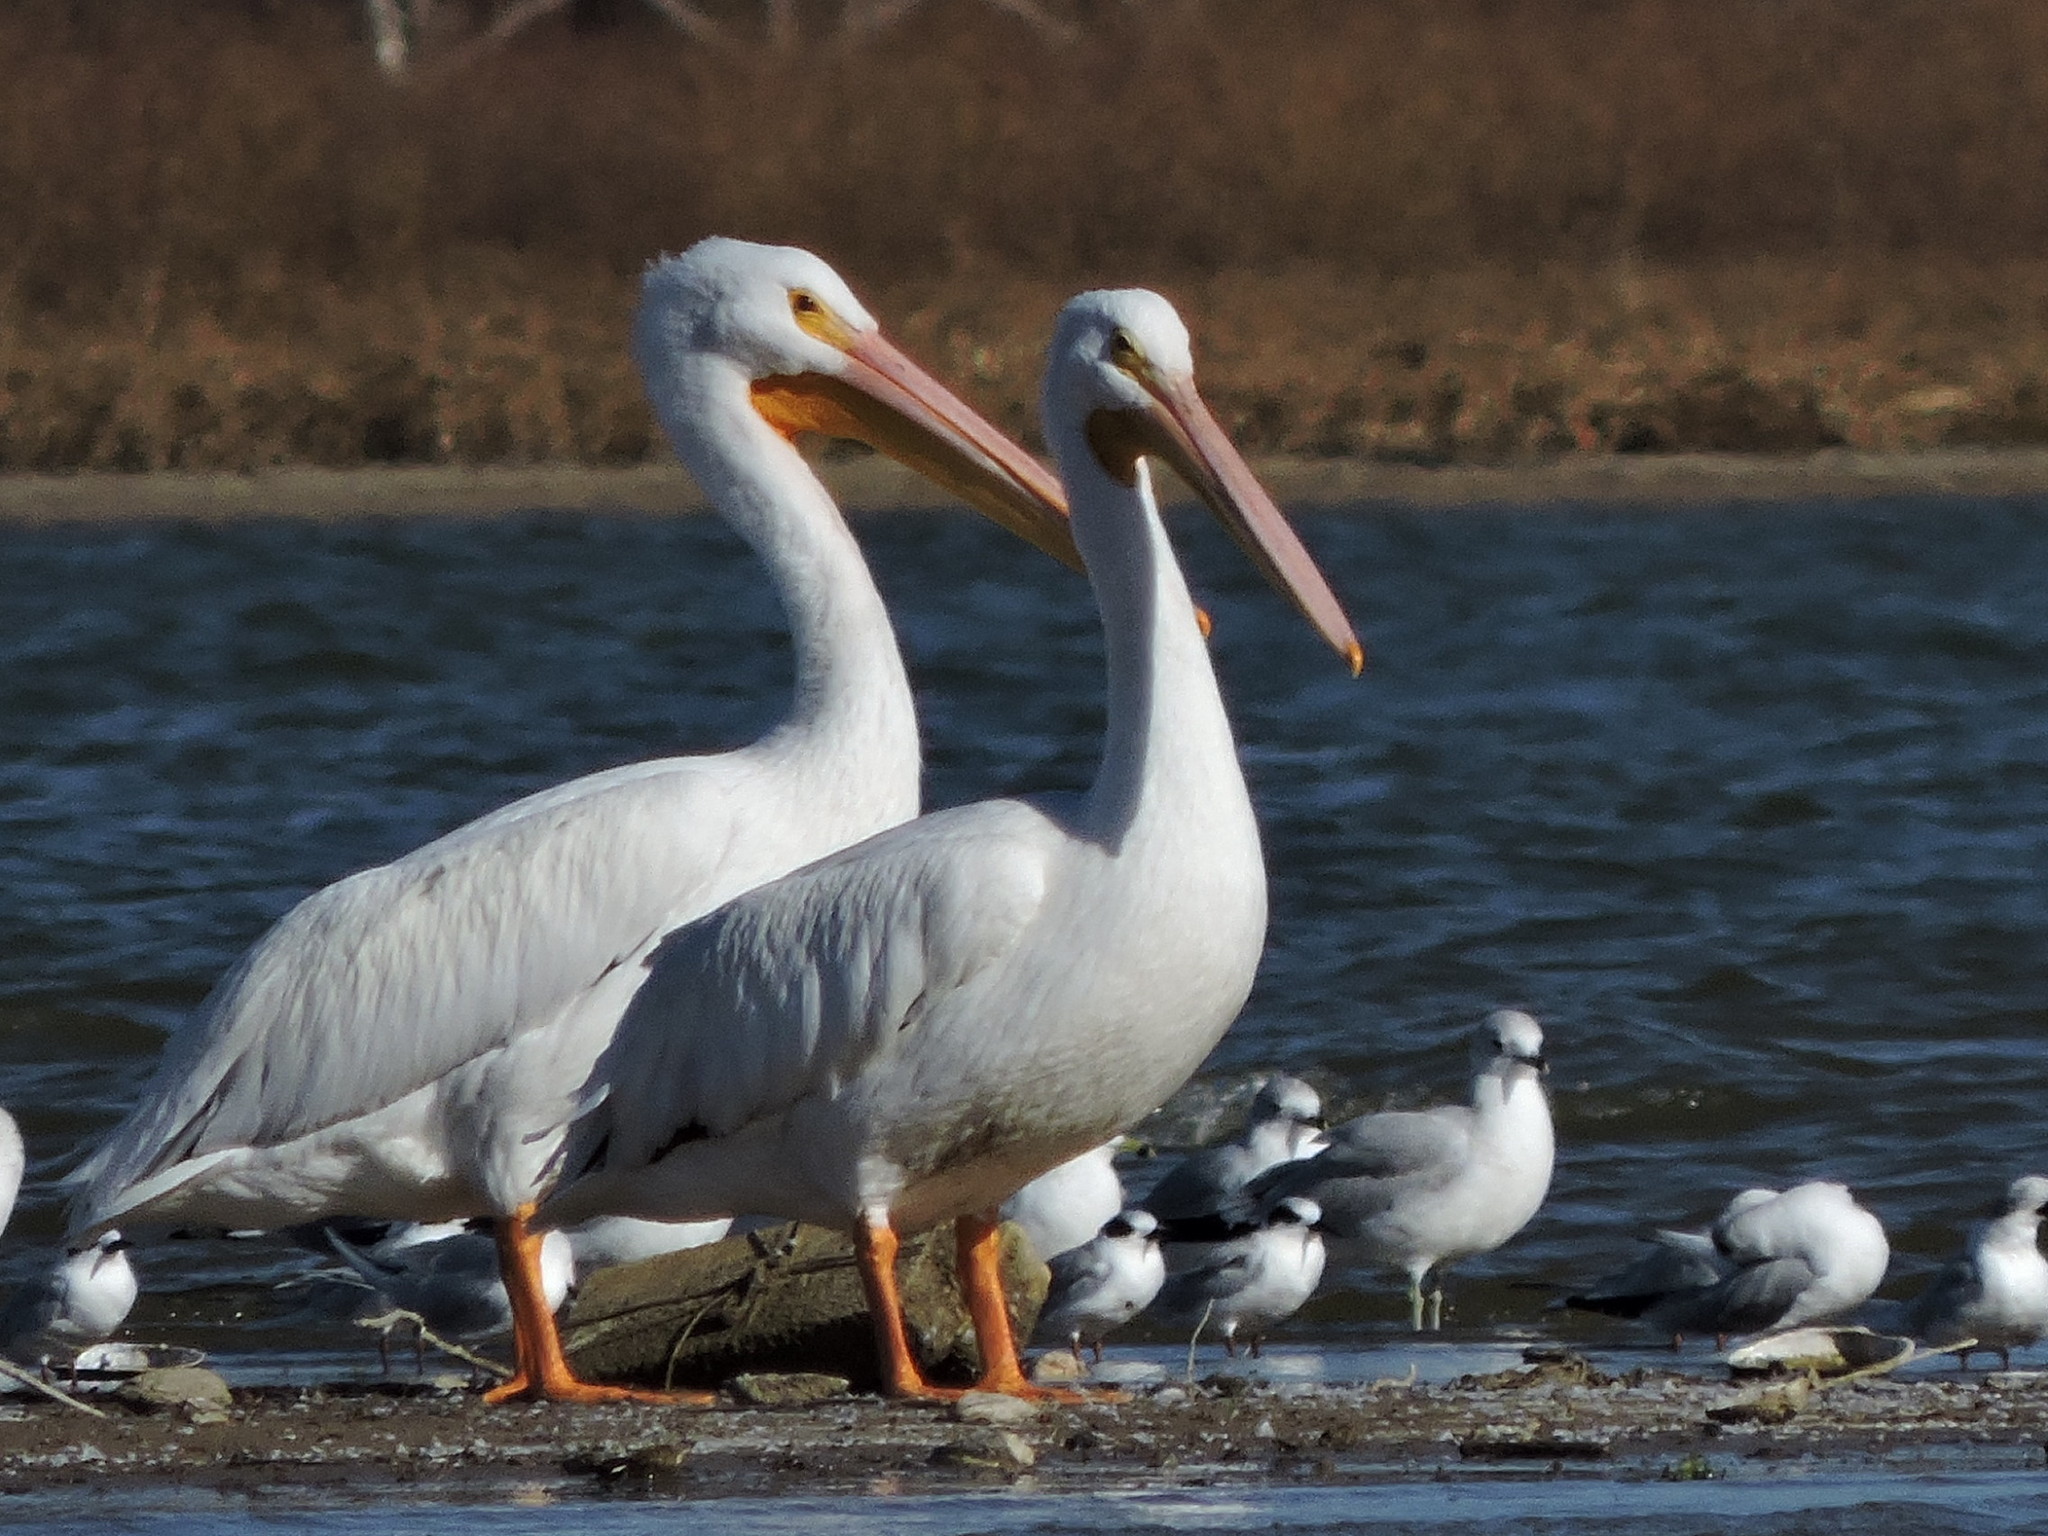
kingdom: Animalia
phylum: Chordata
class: Aves
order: Pelecaniformes
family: Pelecanidae
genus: Pelecanus
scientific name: Pelecanus erythrorhynchos
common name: American white pelican
